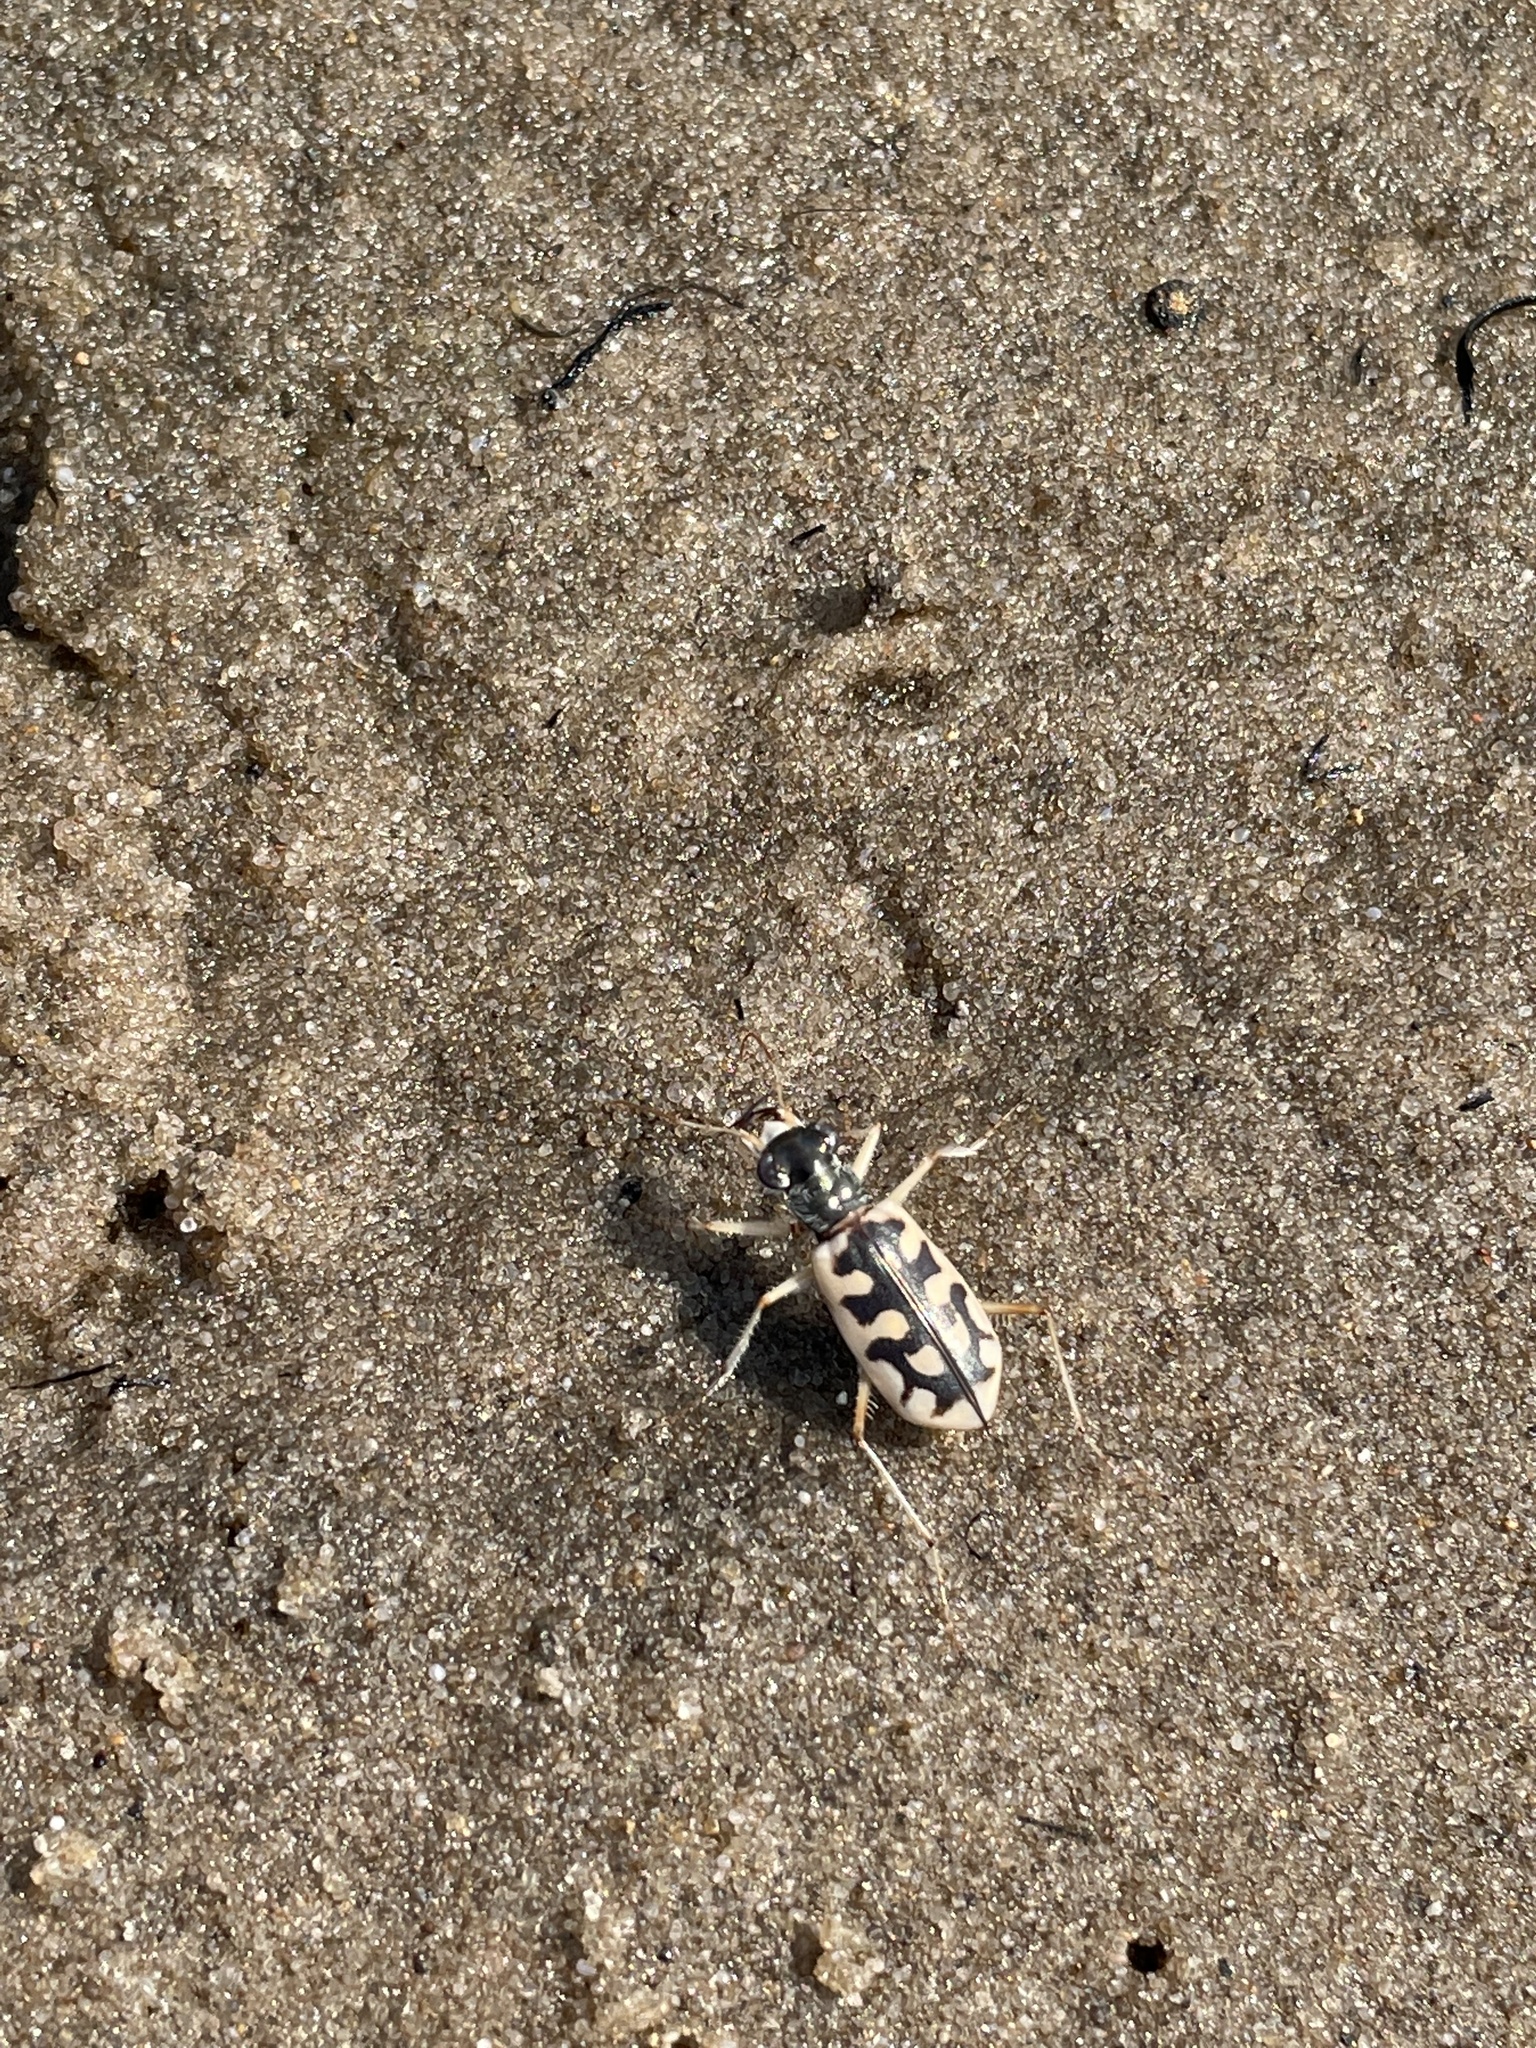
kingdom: Animalia
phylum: Arthropoda
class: Insecta
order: Coleoptera
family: Carabidae
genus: Cicindela
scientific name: Cicindela asperula
